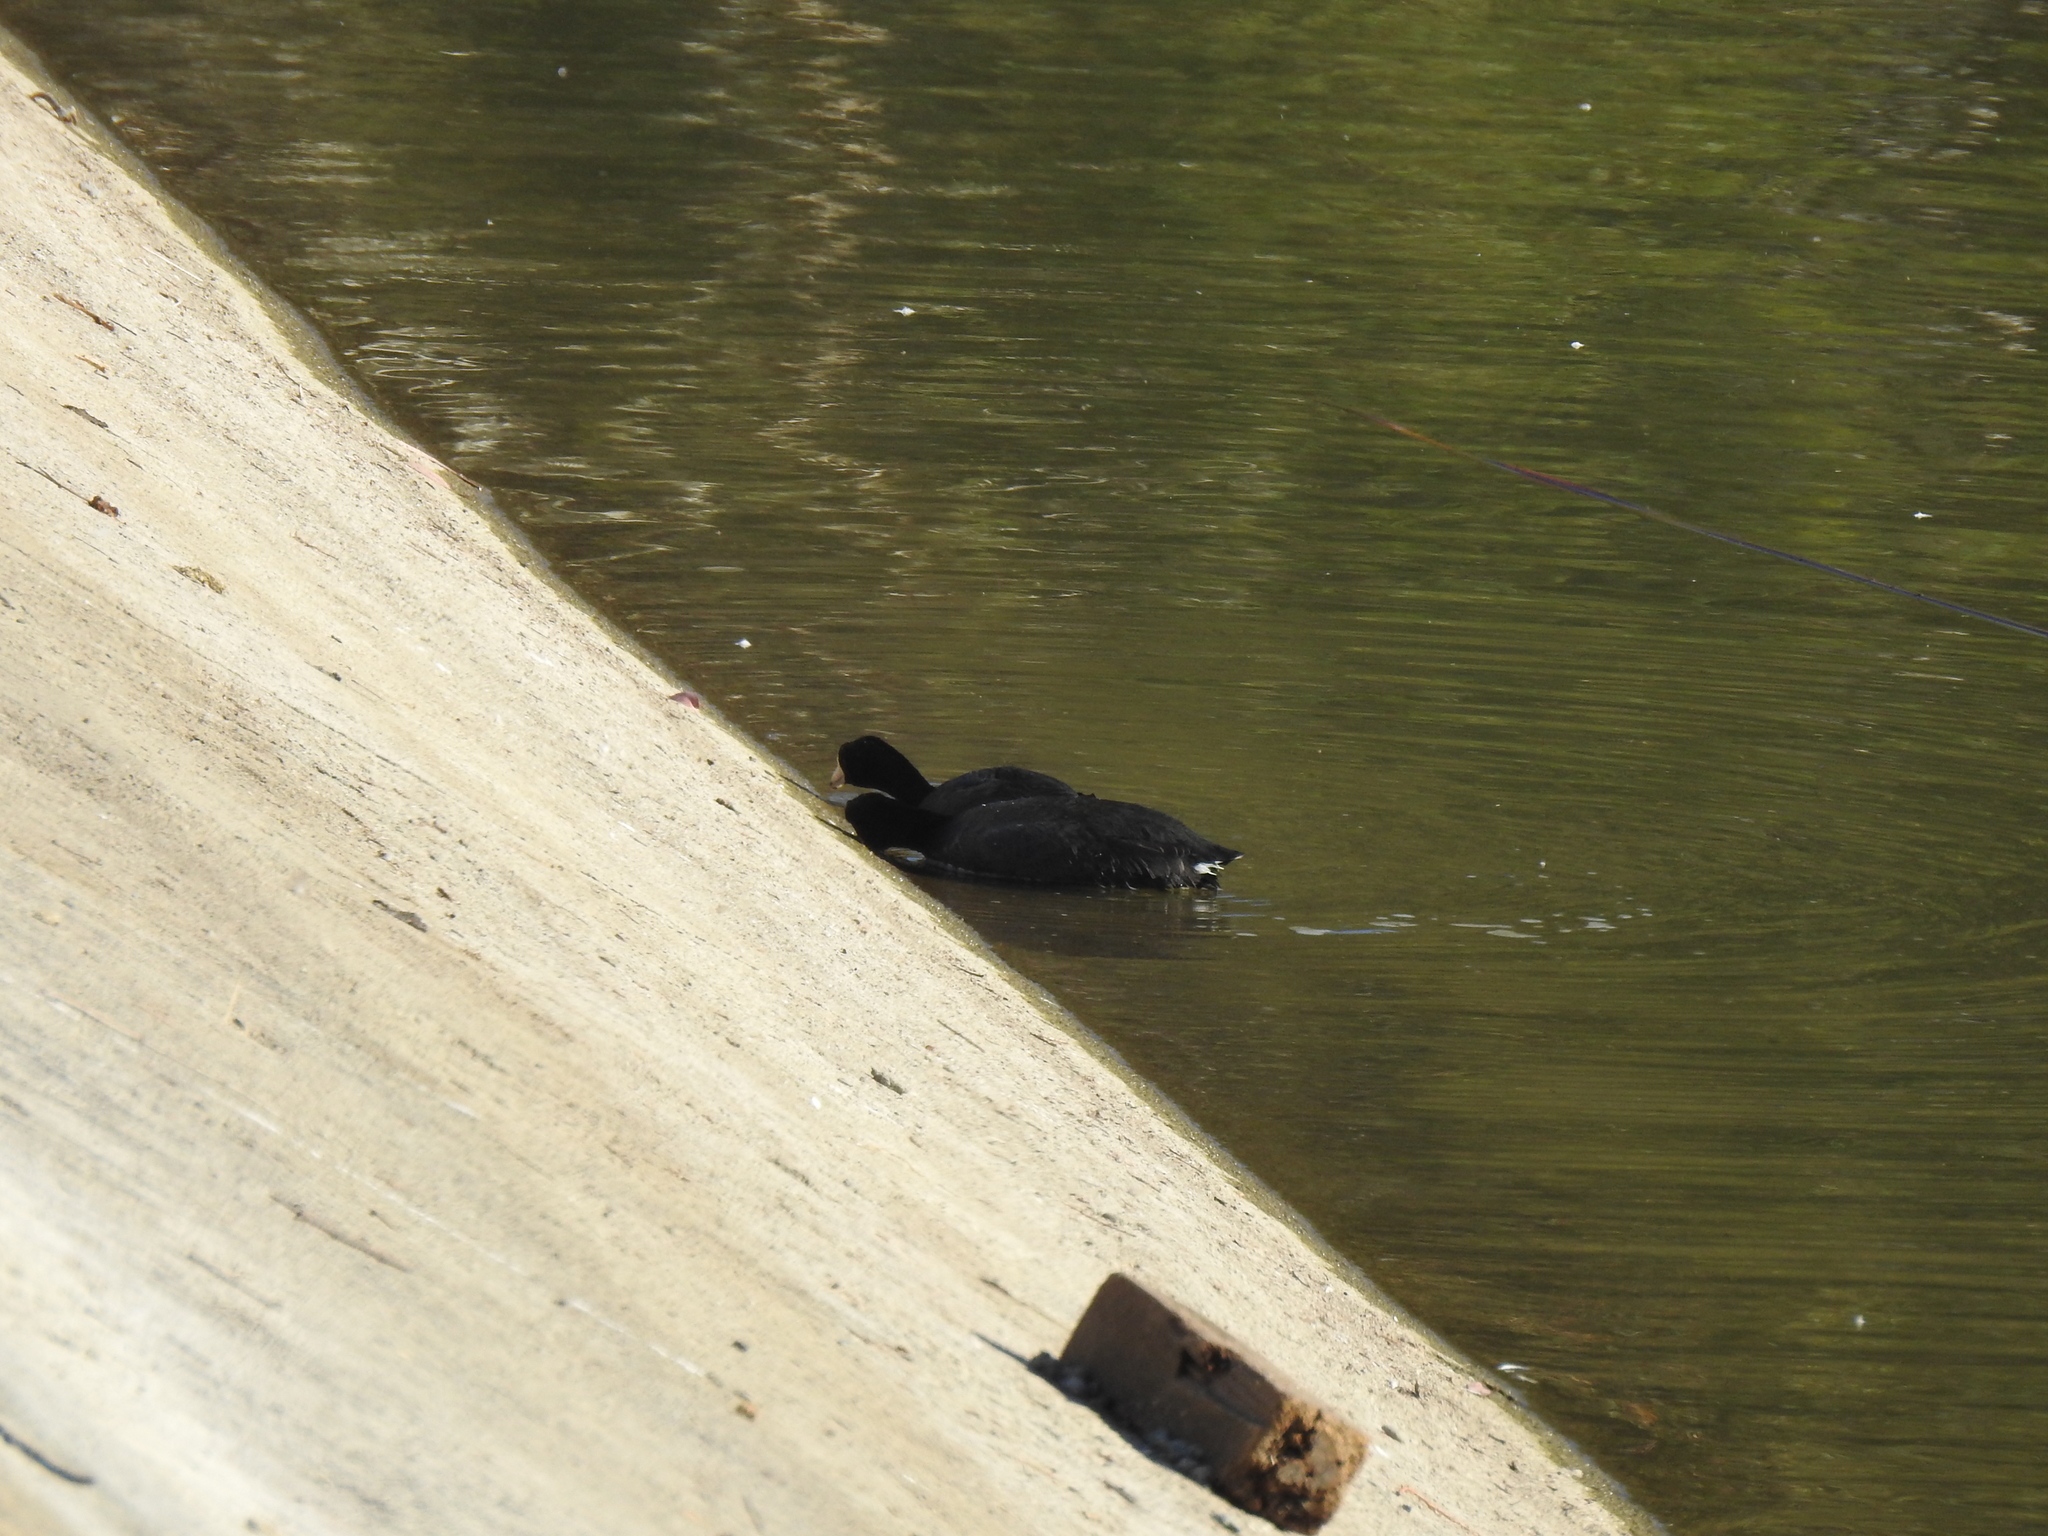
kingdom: Animalia
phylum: Chordata
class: Aves
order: Gruiformes
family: Rallidae
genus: Fulica
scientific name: Fulica americana
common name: American coot
